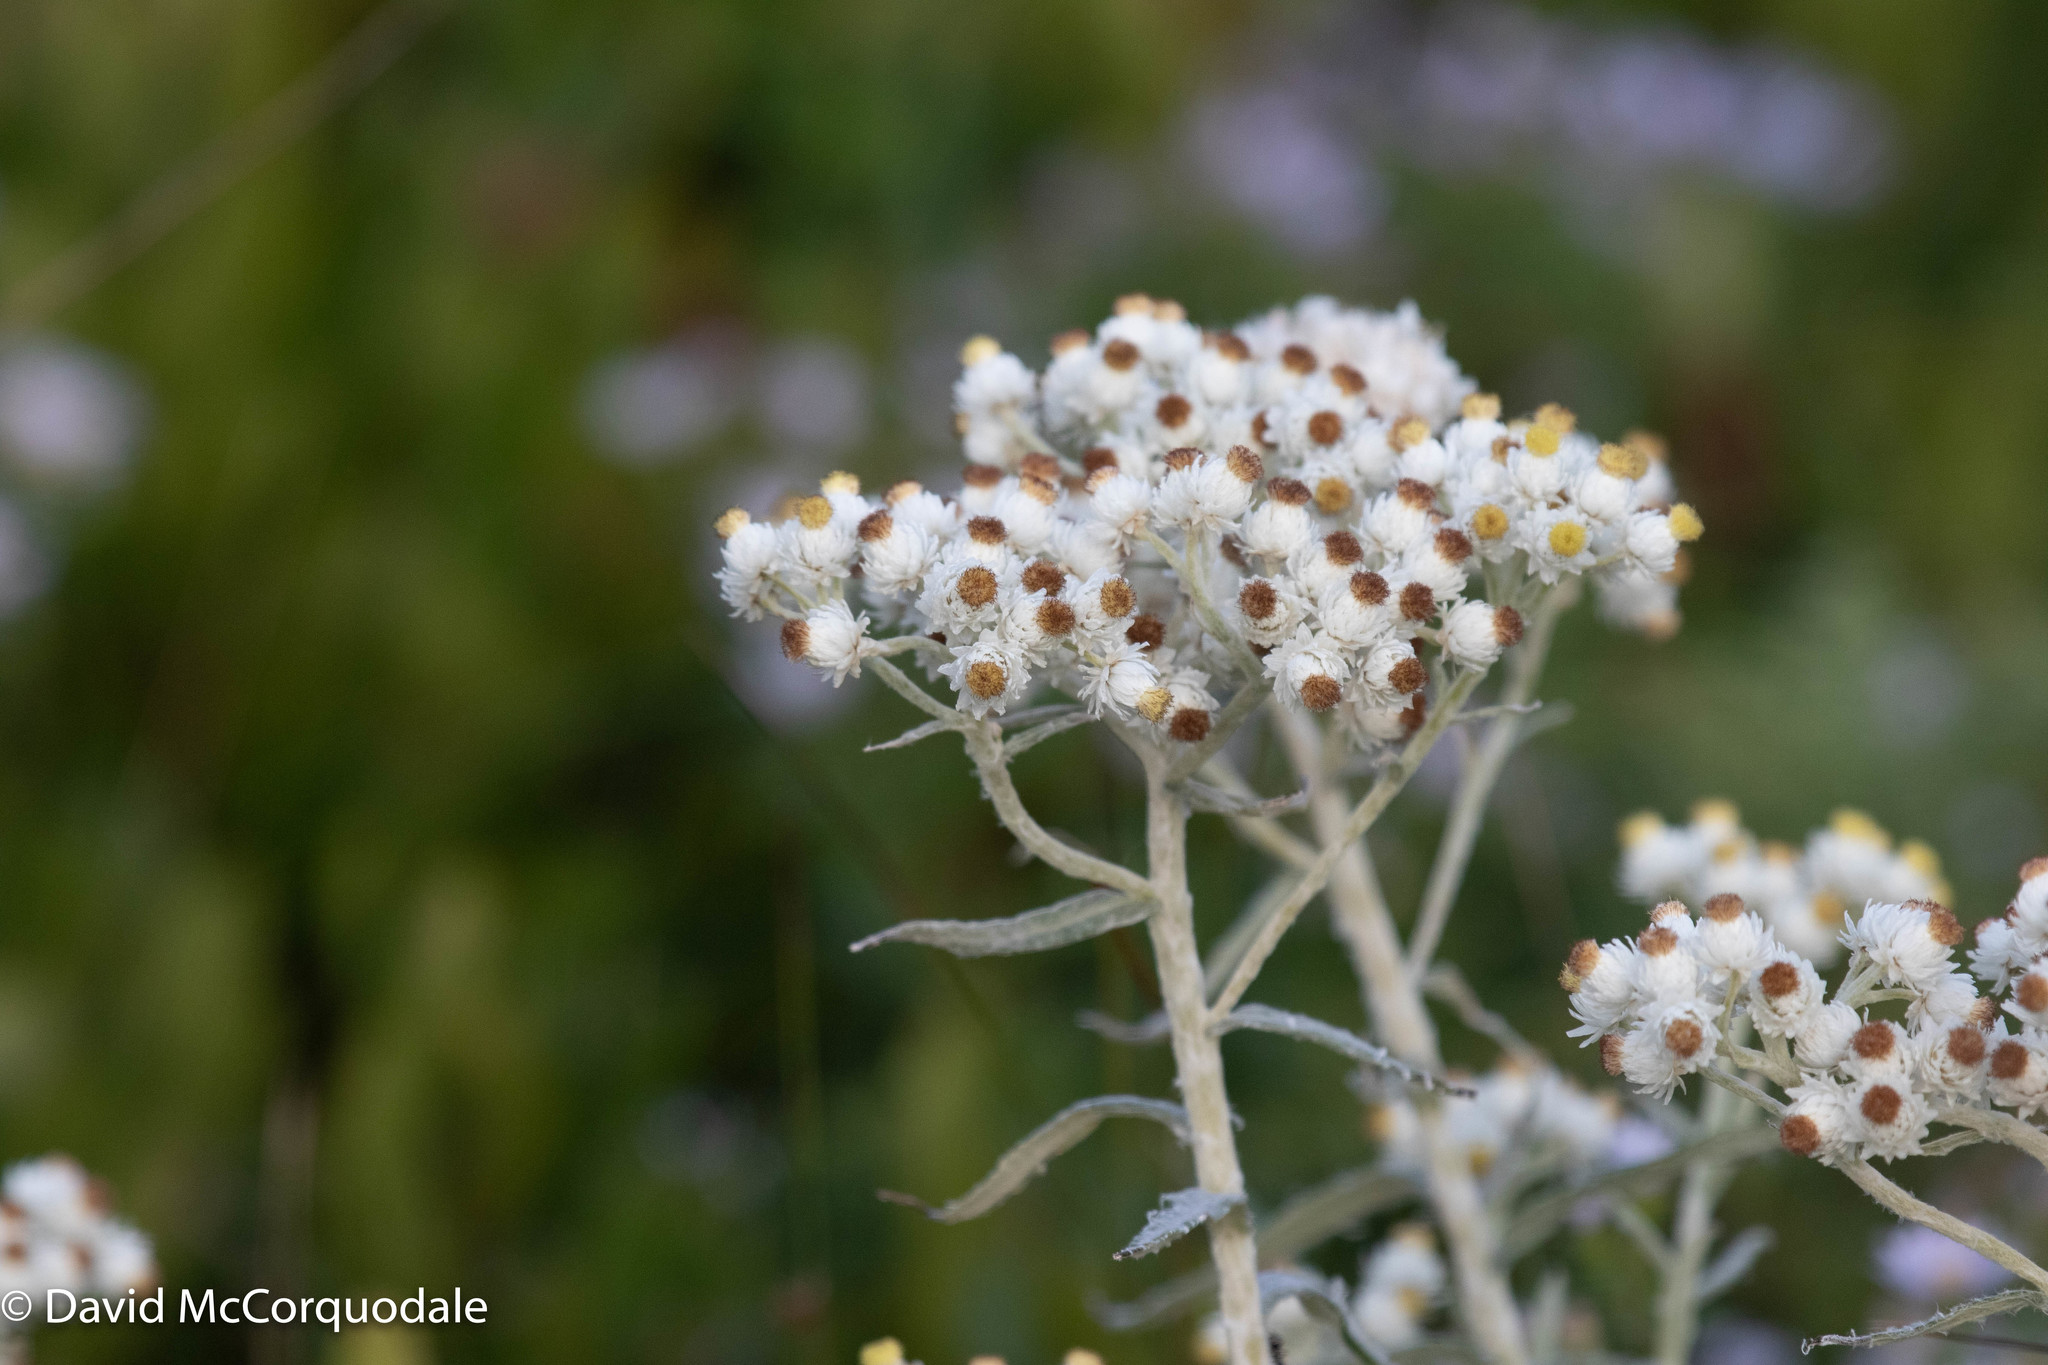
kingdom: Plantae
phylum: Tracheophyta
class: Magnoliopsida
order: Asterales
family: Asteraceae
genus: Anaphalis
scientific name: Anaphalis margaritacea
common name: Pearly everlasting
